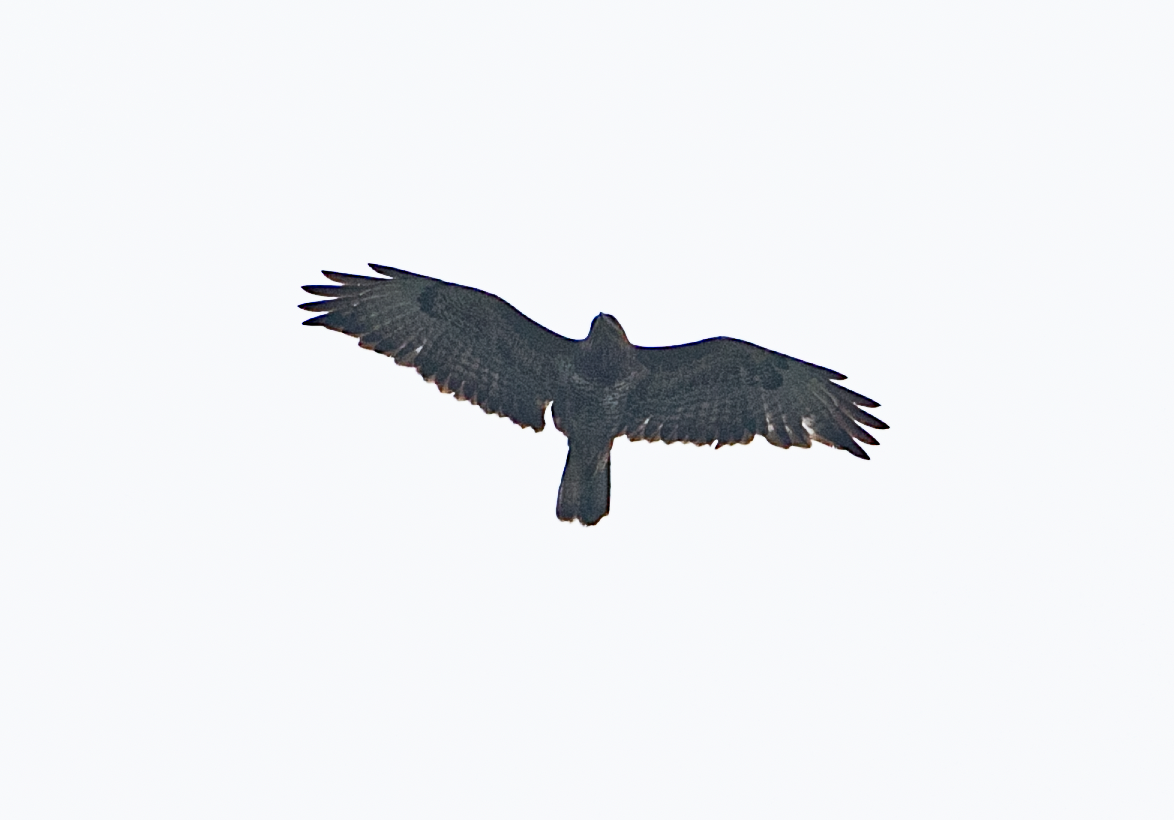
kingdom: Animalia
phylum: Chordata
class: Aves
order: Accipitriformes
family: Accipitridae
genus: Buteo
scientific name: Buteo buteo
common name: Common buzzard
